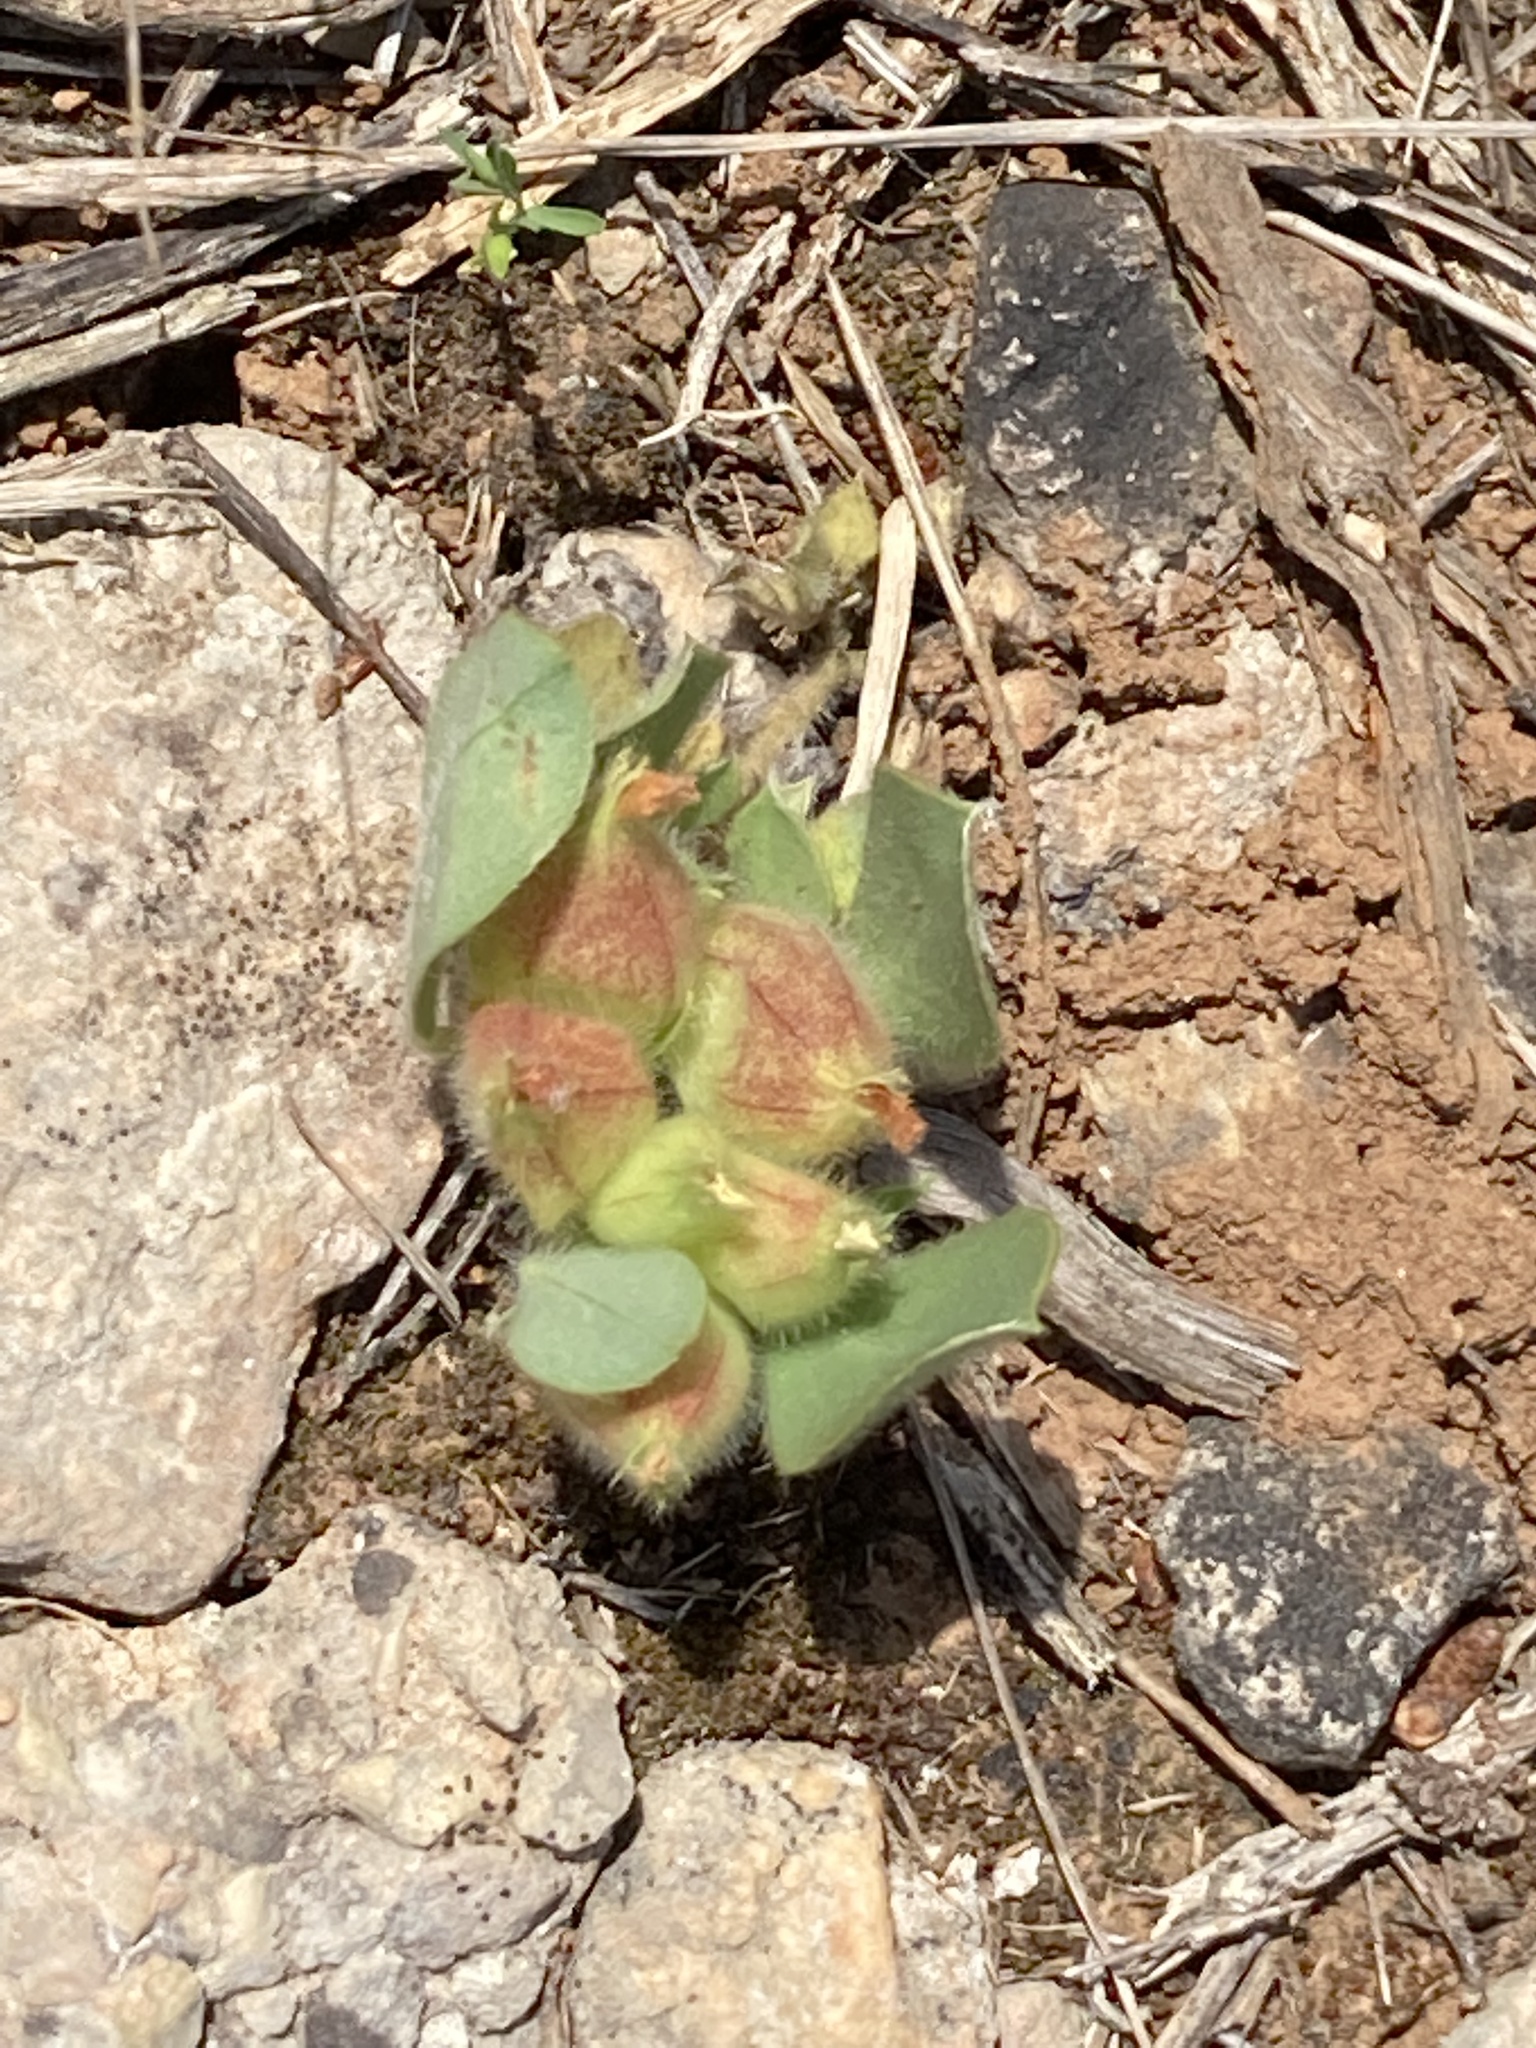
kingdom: Plantae
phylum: Tracheophyta
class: Magnoliopsida
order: Fabales
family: Fabaceae
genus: Tripodion
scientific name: Tripodion tetraphyllum
